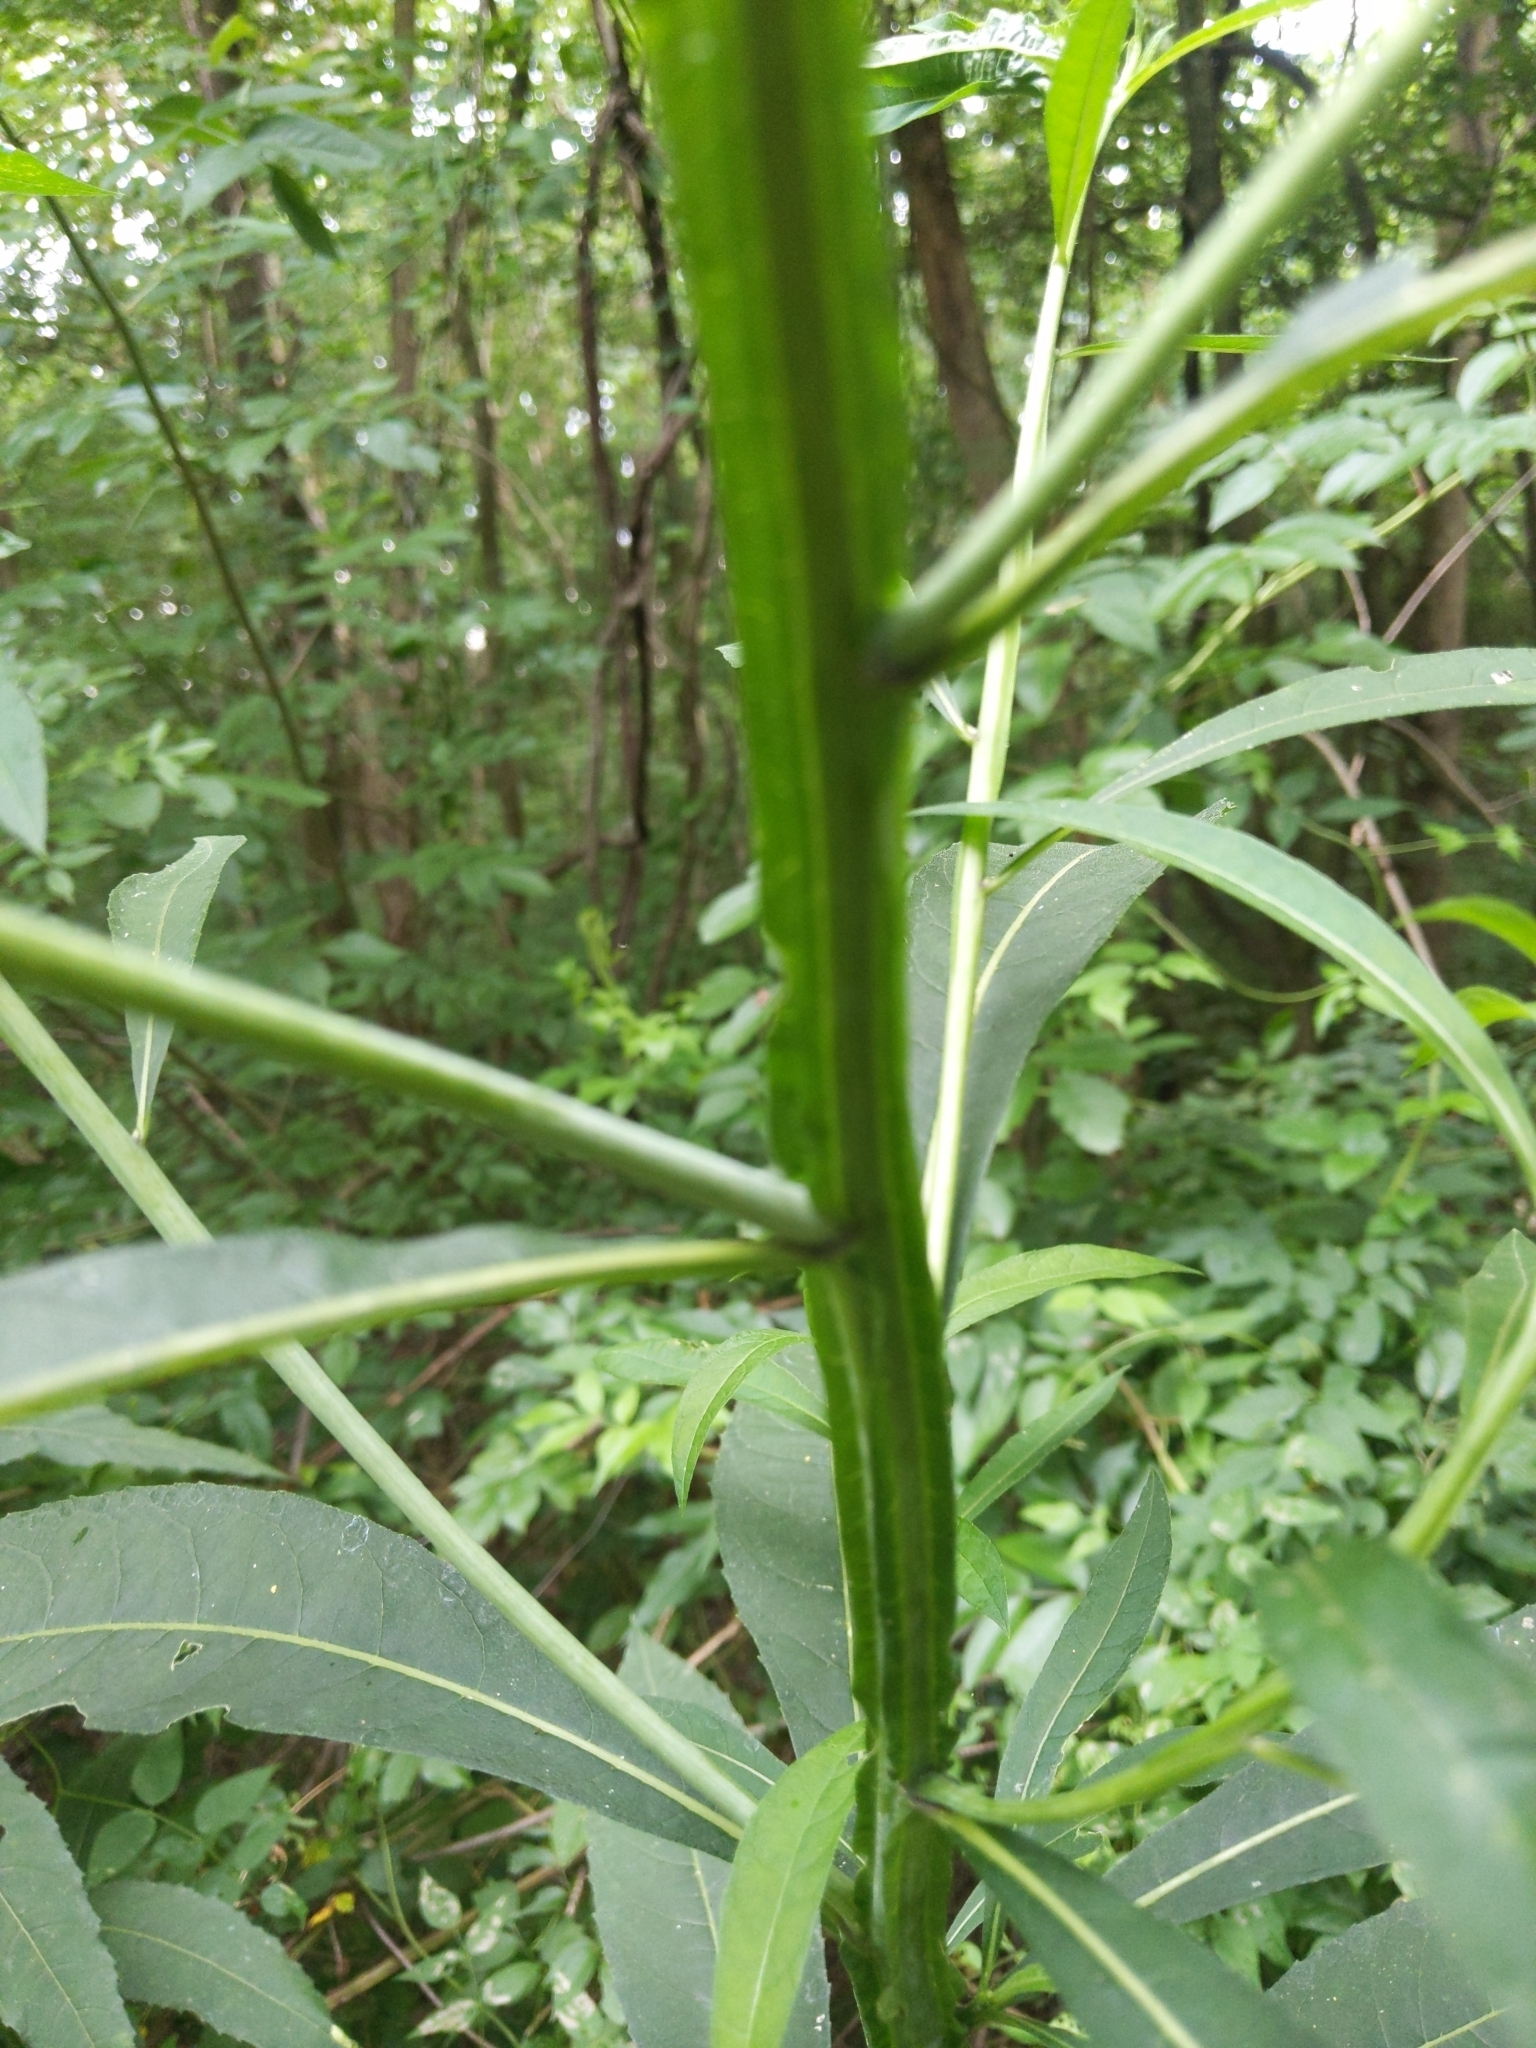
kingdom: Plantae
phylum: Tracheophyta
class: Magnoliopsida
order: Asterales
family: Asteraceae
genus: Verbesina
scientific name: Verbesina walteri
